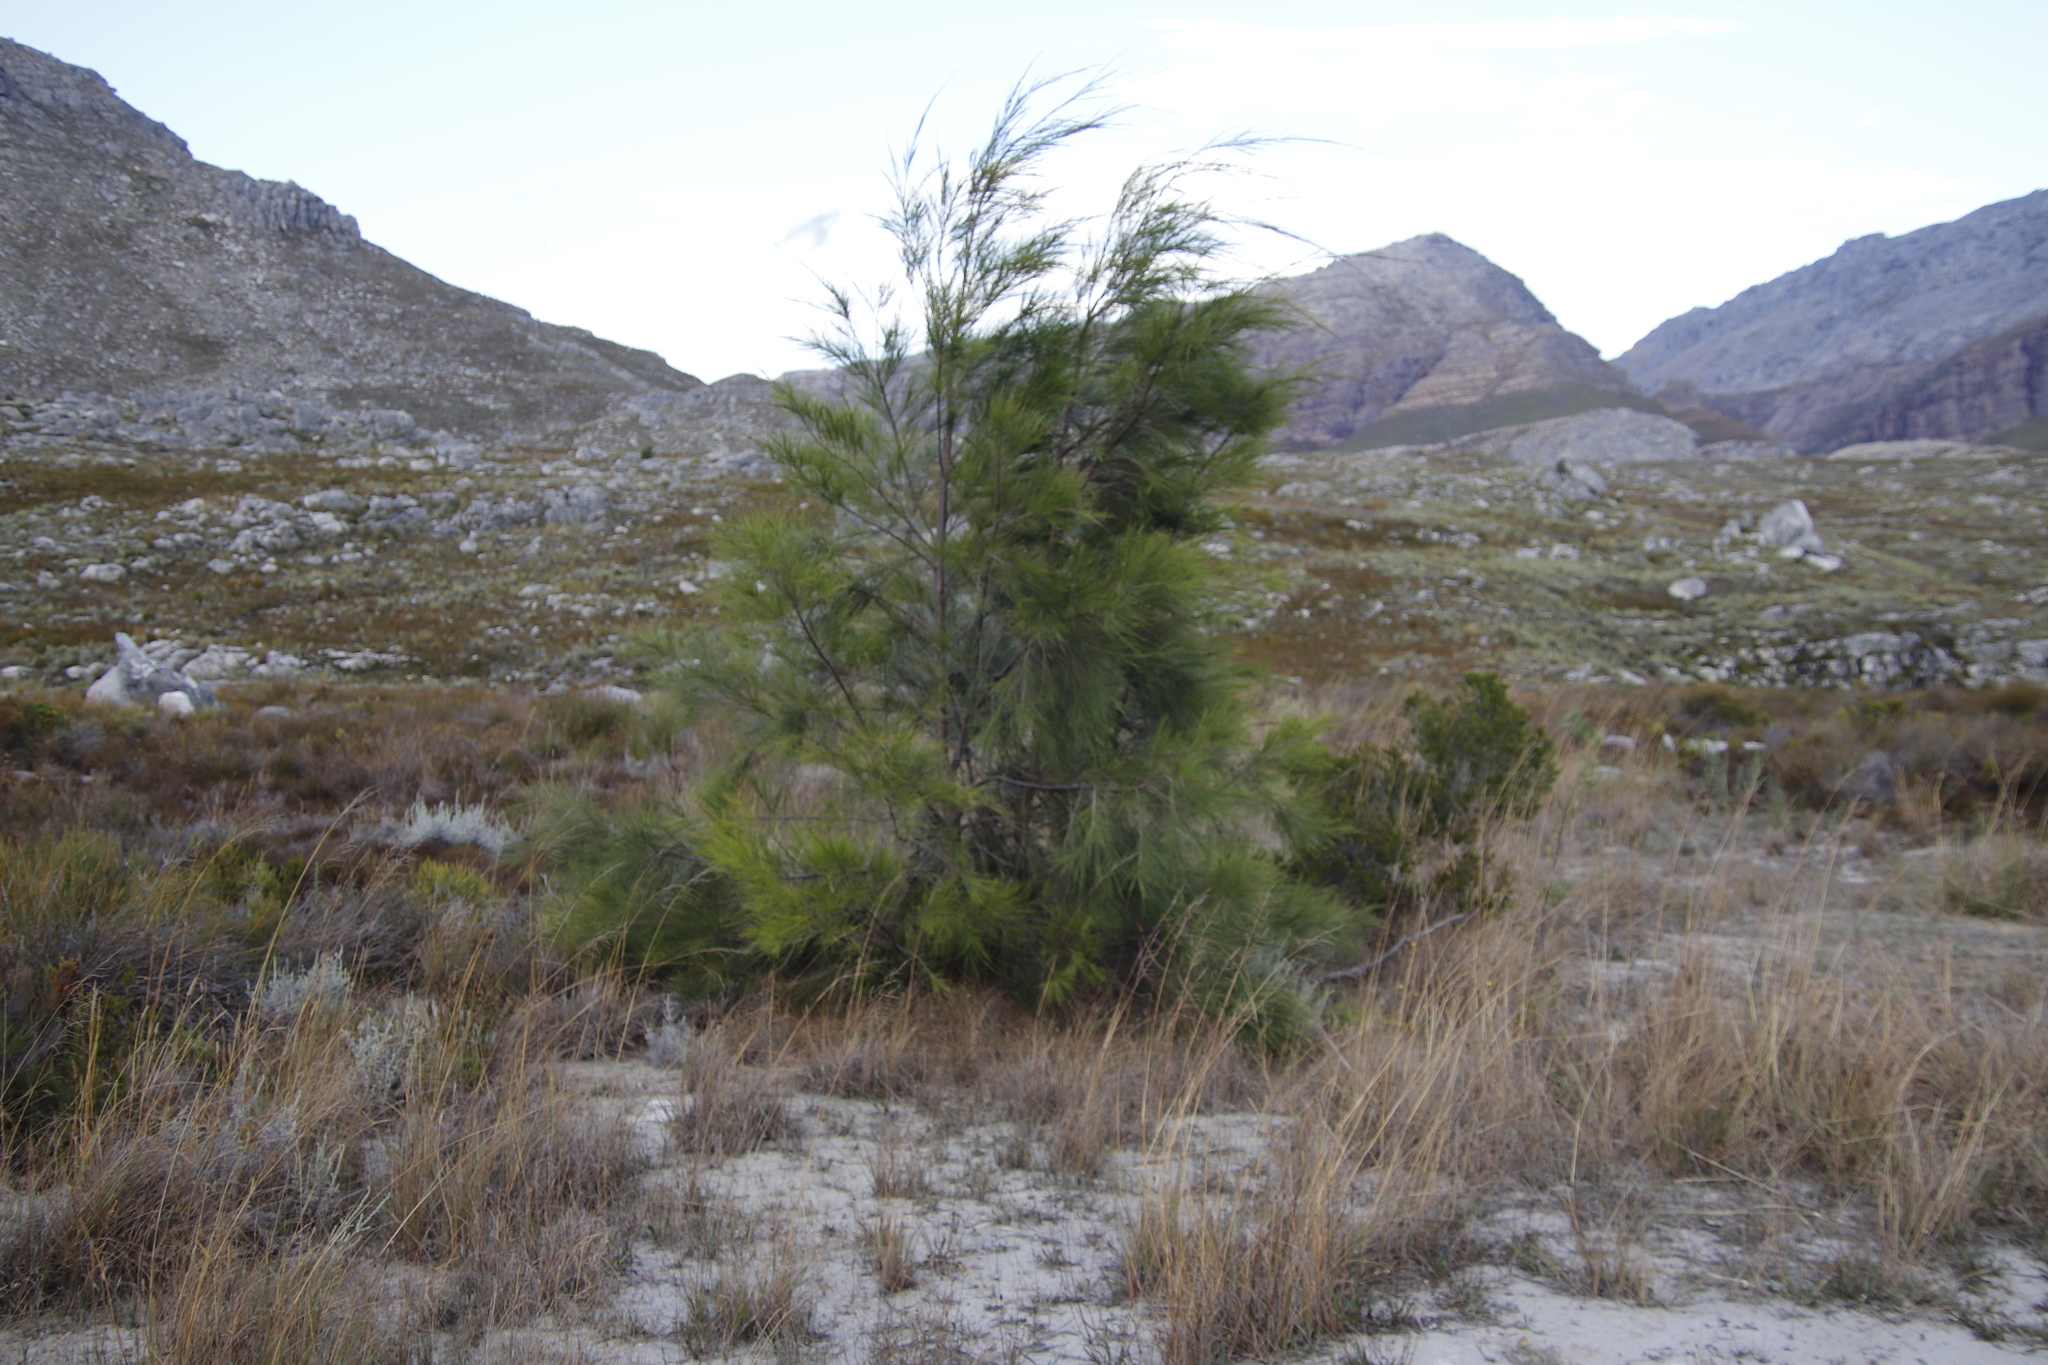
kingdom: Plantae
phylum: Tracheophyta
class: Magnoliopsida
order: Fagales
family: Casuarinaceae
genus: Casuarina
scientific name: Casuarina cunninghamiana
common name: River sheoak
